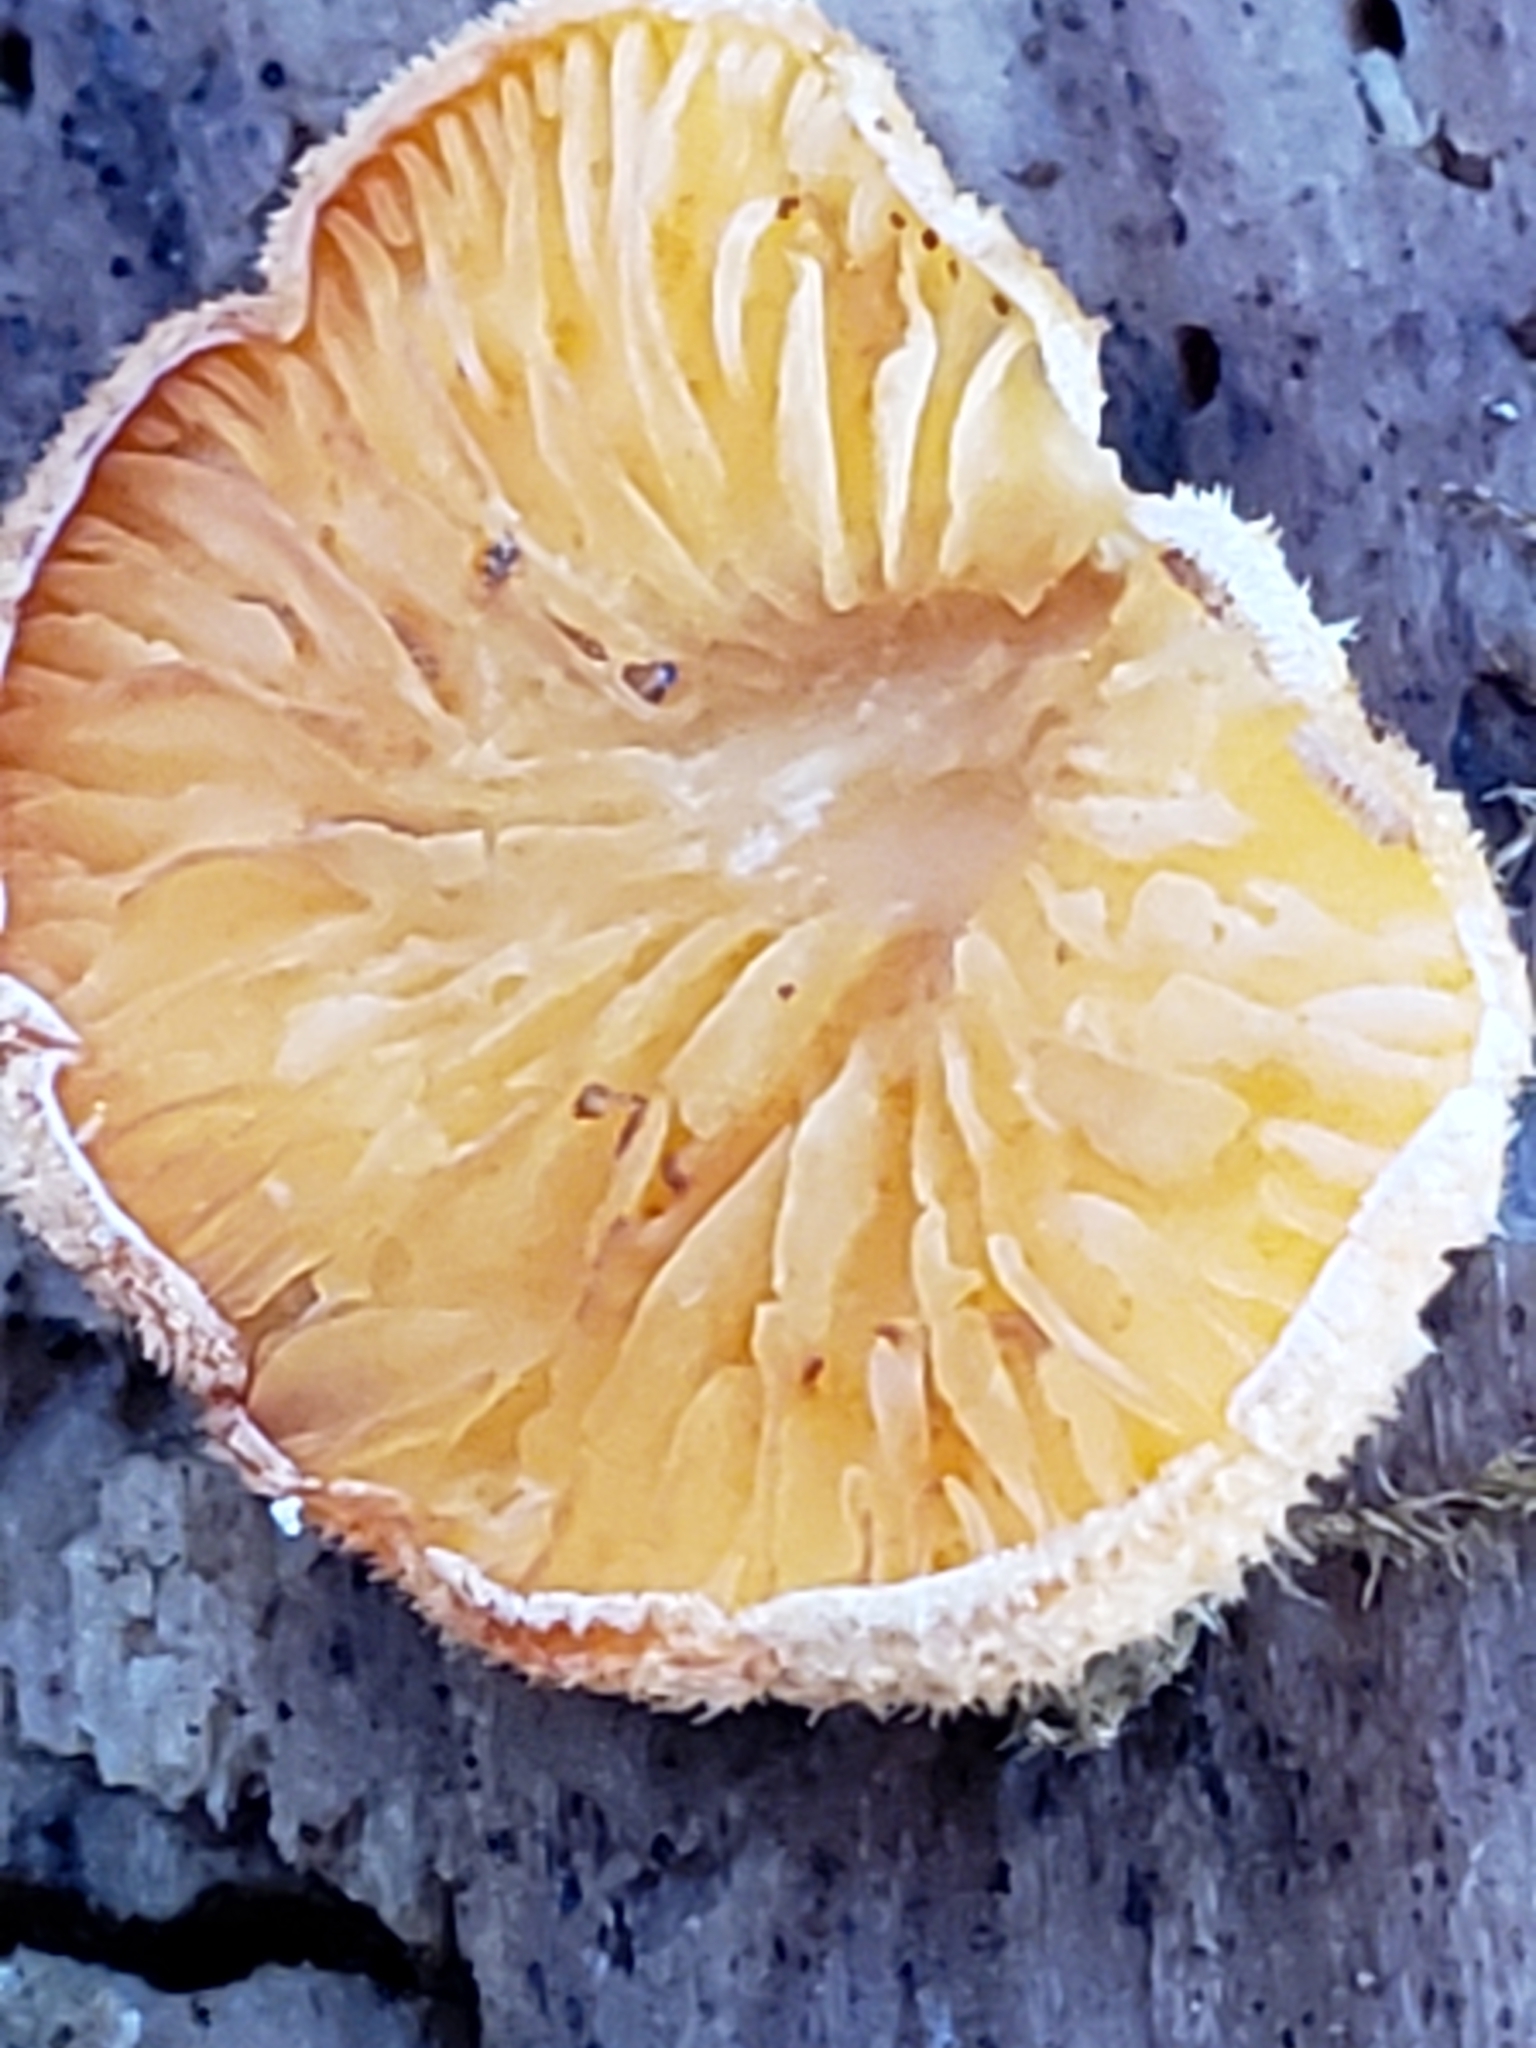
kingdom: Fungi
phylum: Basidiomycota
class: Agaricomycetes
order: Agaricales
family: Phyllotopsidaceae
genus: Phyllotopsis
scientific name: Phyllotopsis nidulans
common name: Orange mock oyster
